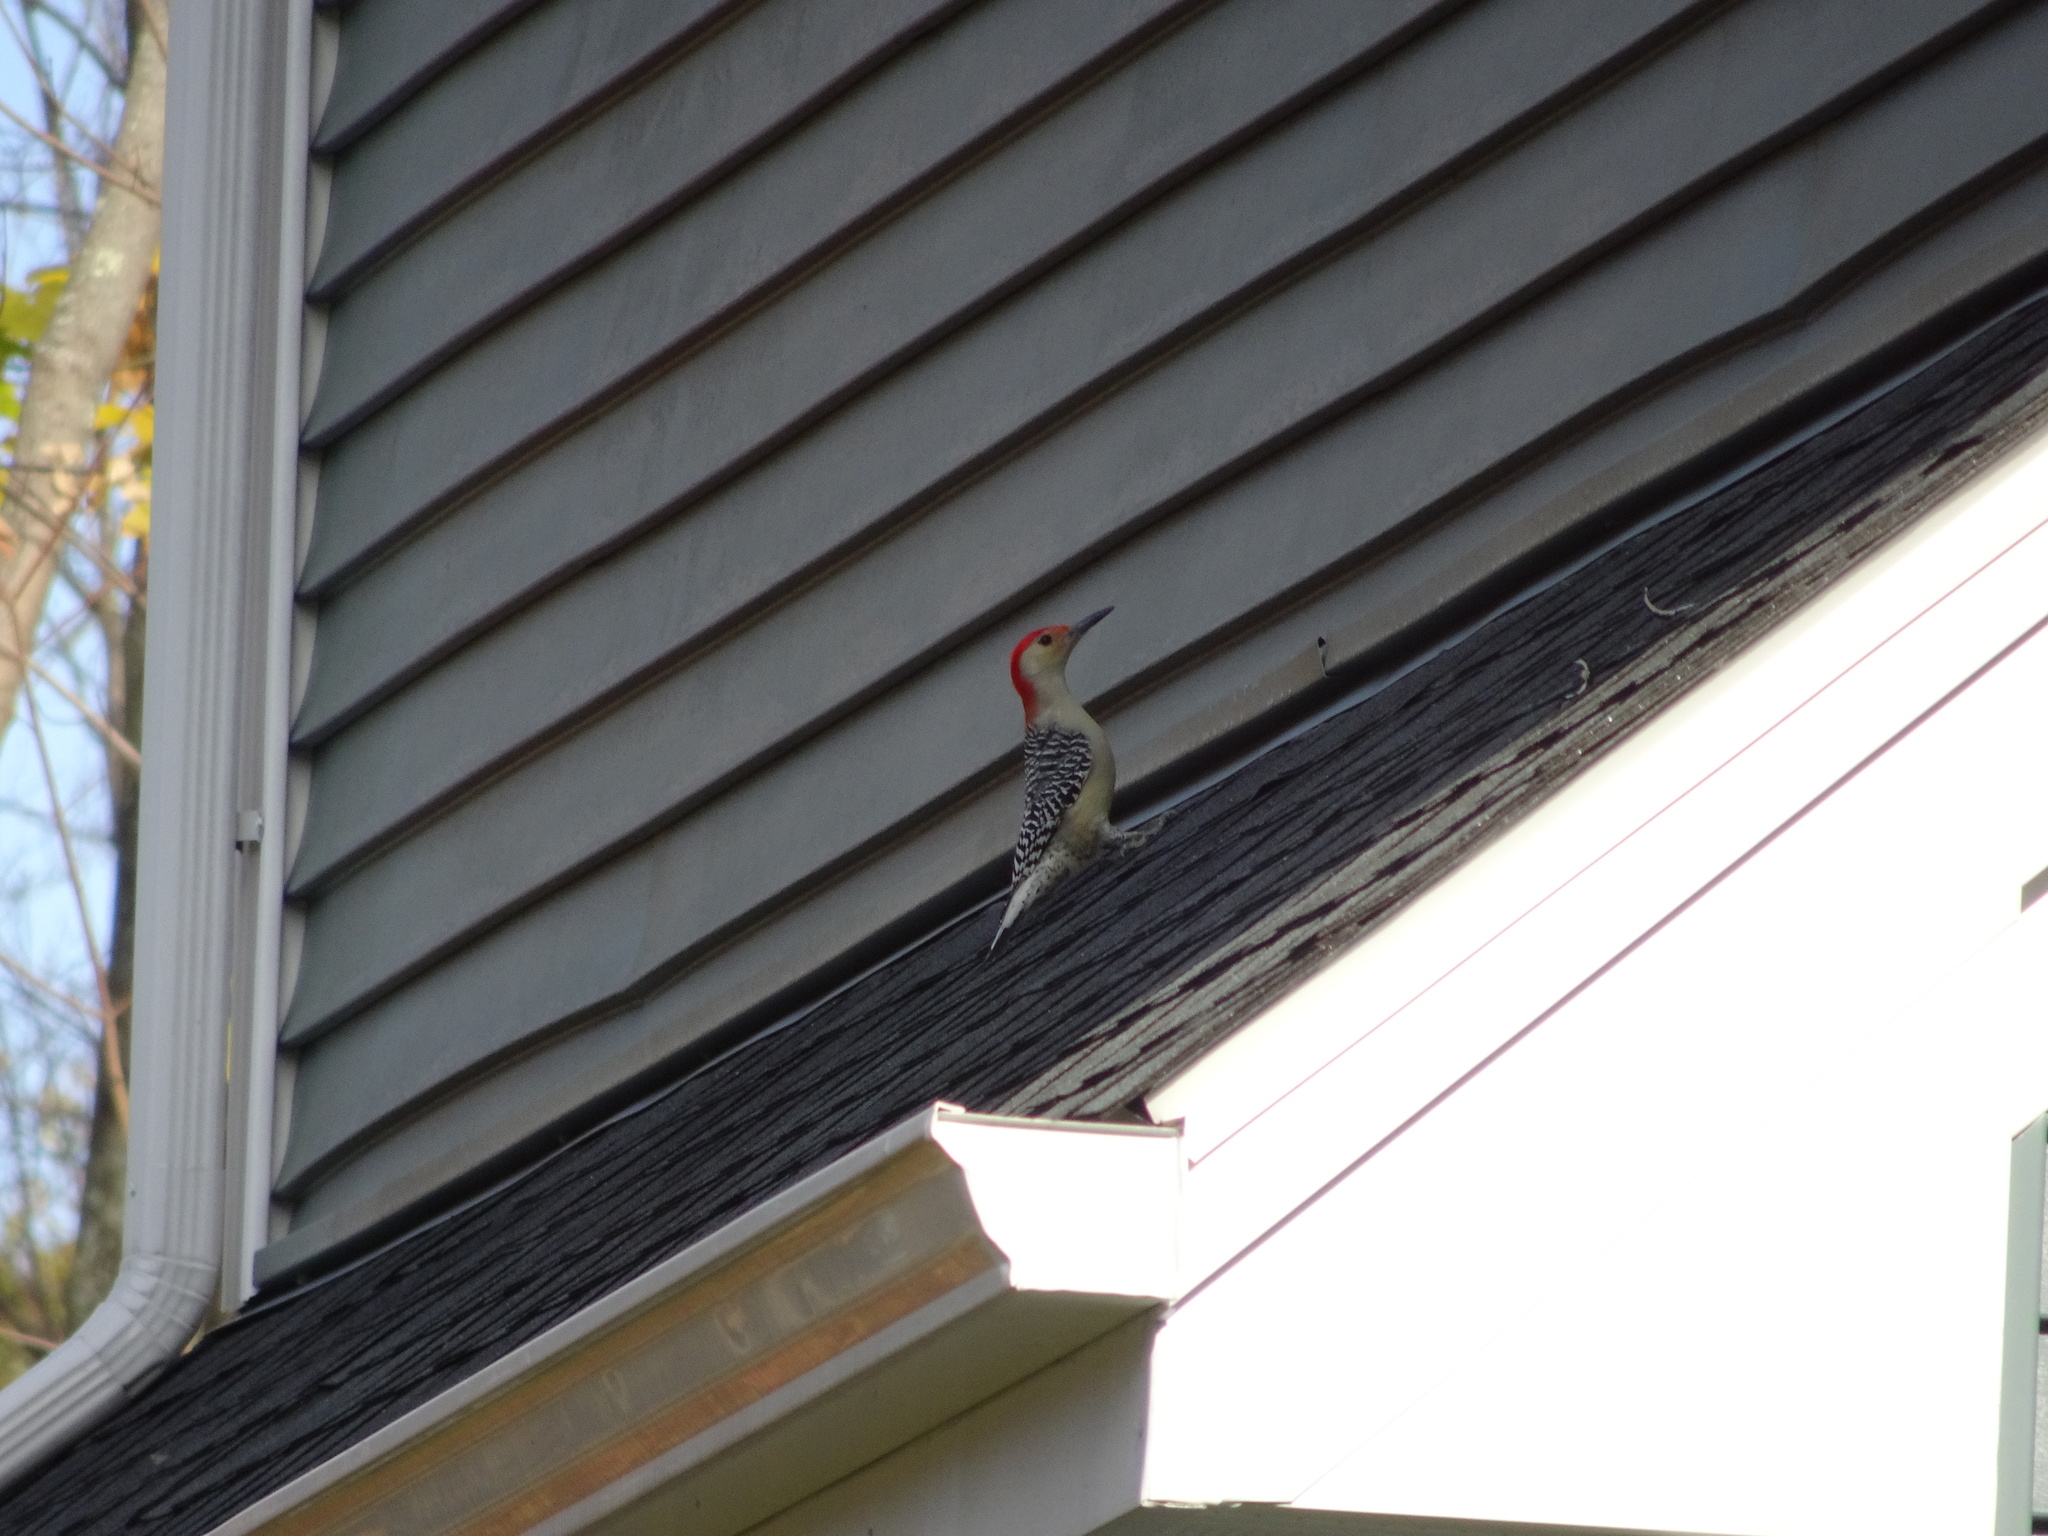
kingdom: Animalia
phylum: Chordata
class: Aves
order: Piciformes
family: Picidae
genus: Melanerpes
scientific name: Melanerpes carolinus
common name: Red-bellied woodpecker
